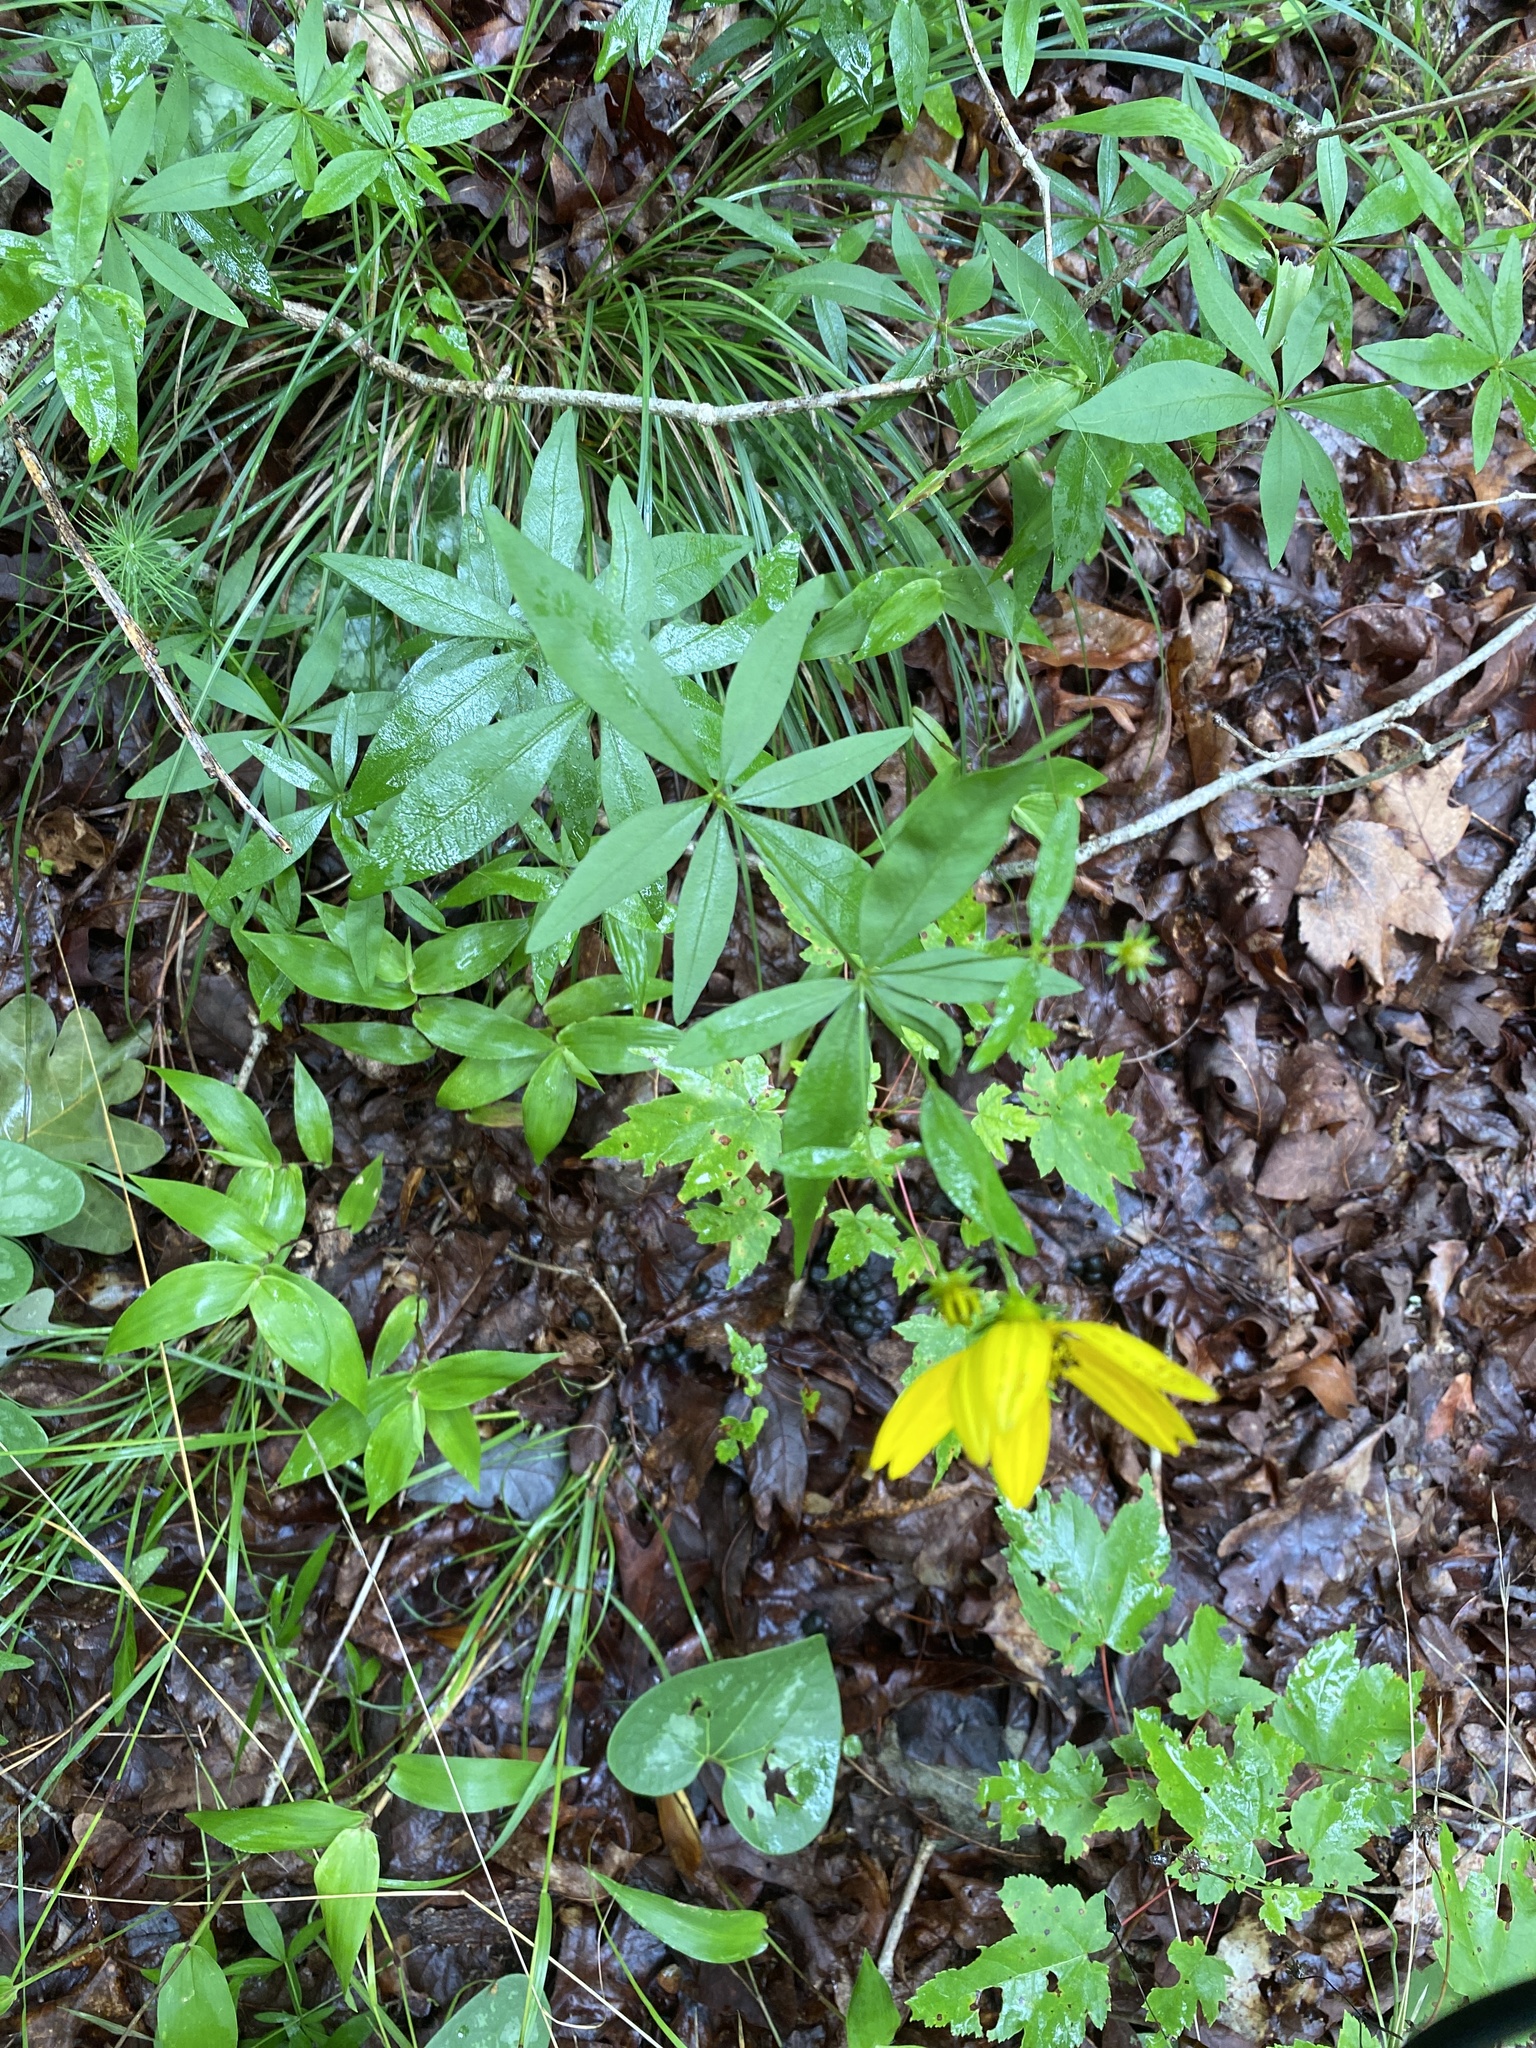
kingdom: Plantae
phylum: Tracheophyta
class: Magnoliopsida
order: Asterales
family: Asteraceae
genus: Coreopsis
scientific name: Coreopsis major
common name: Forest tickseed
